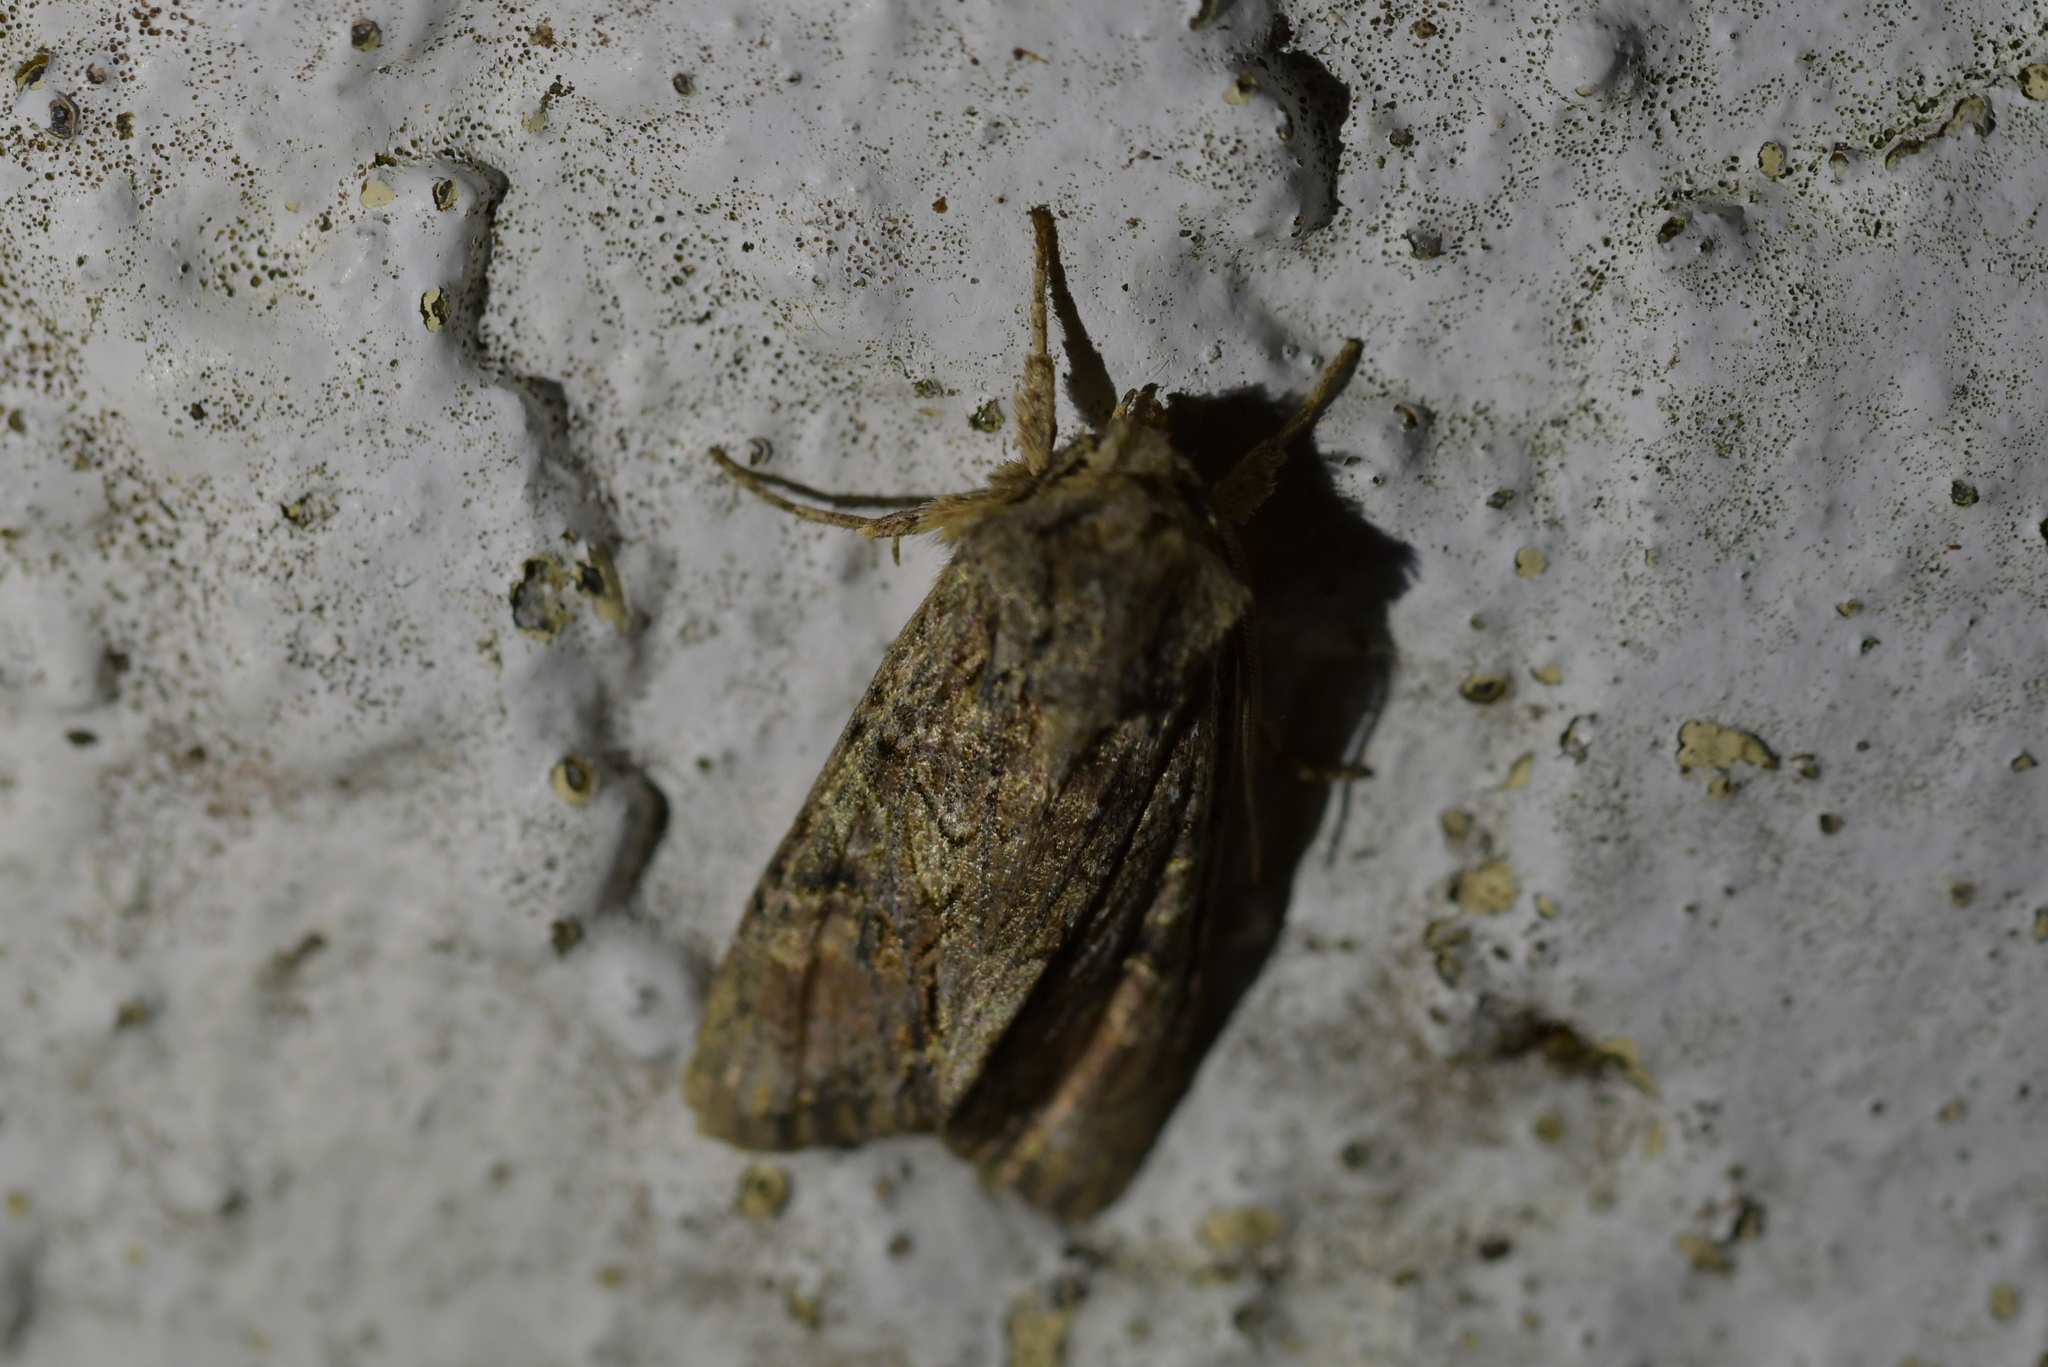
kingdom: Animalia
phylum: Arthropoda
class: Insecta
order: Lepidoptera
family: Noctuidae
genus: Ichneutica
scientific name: Ichneutica mutans
